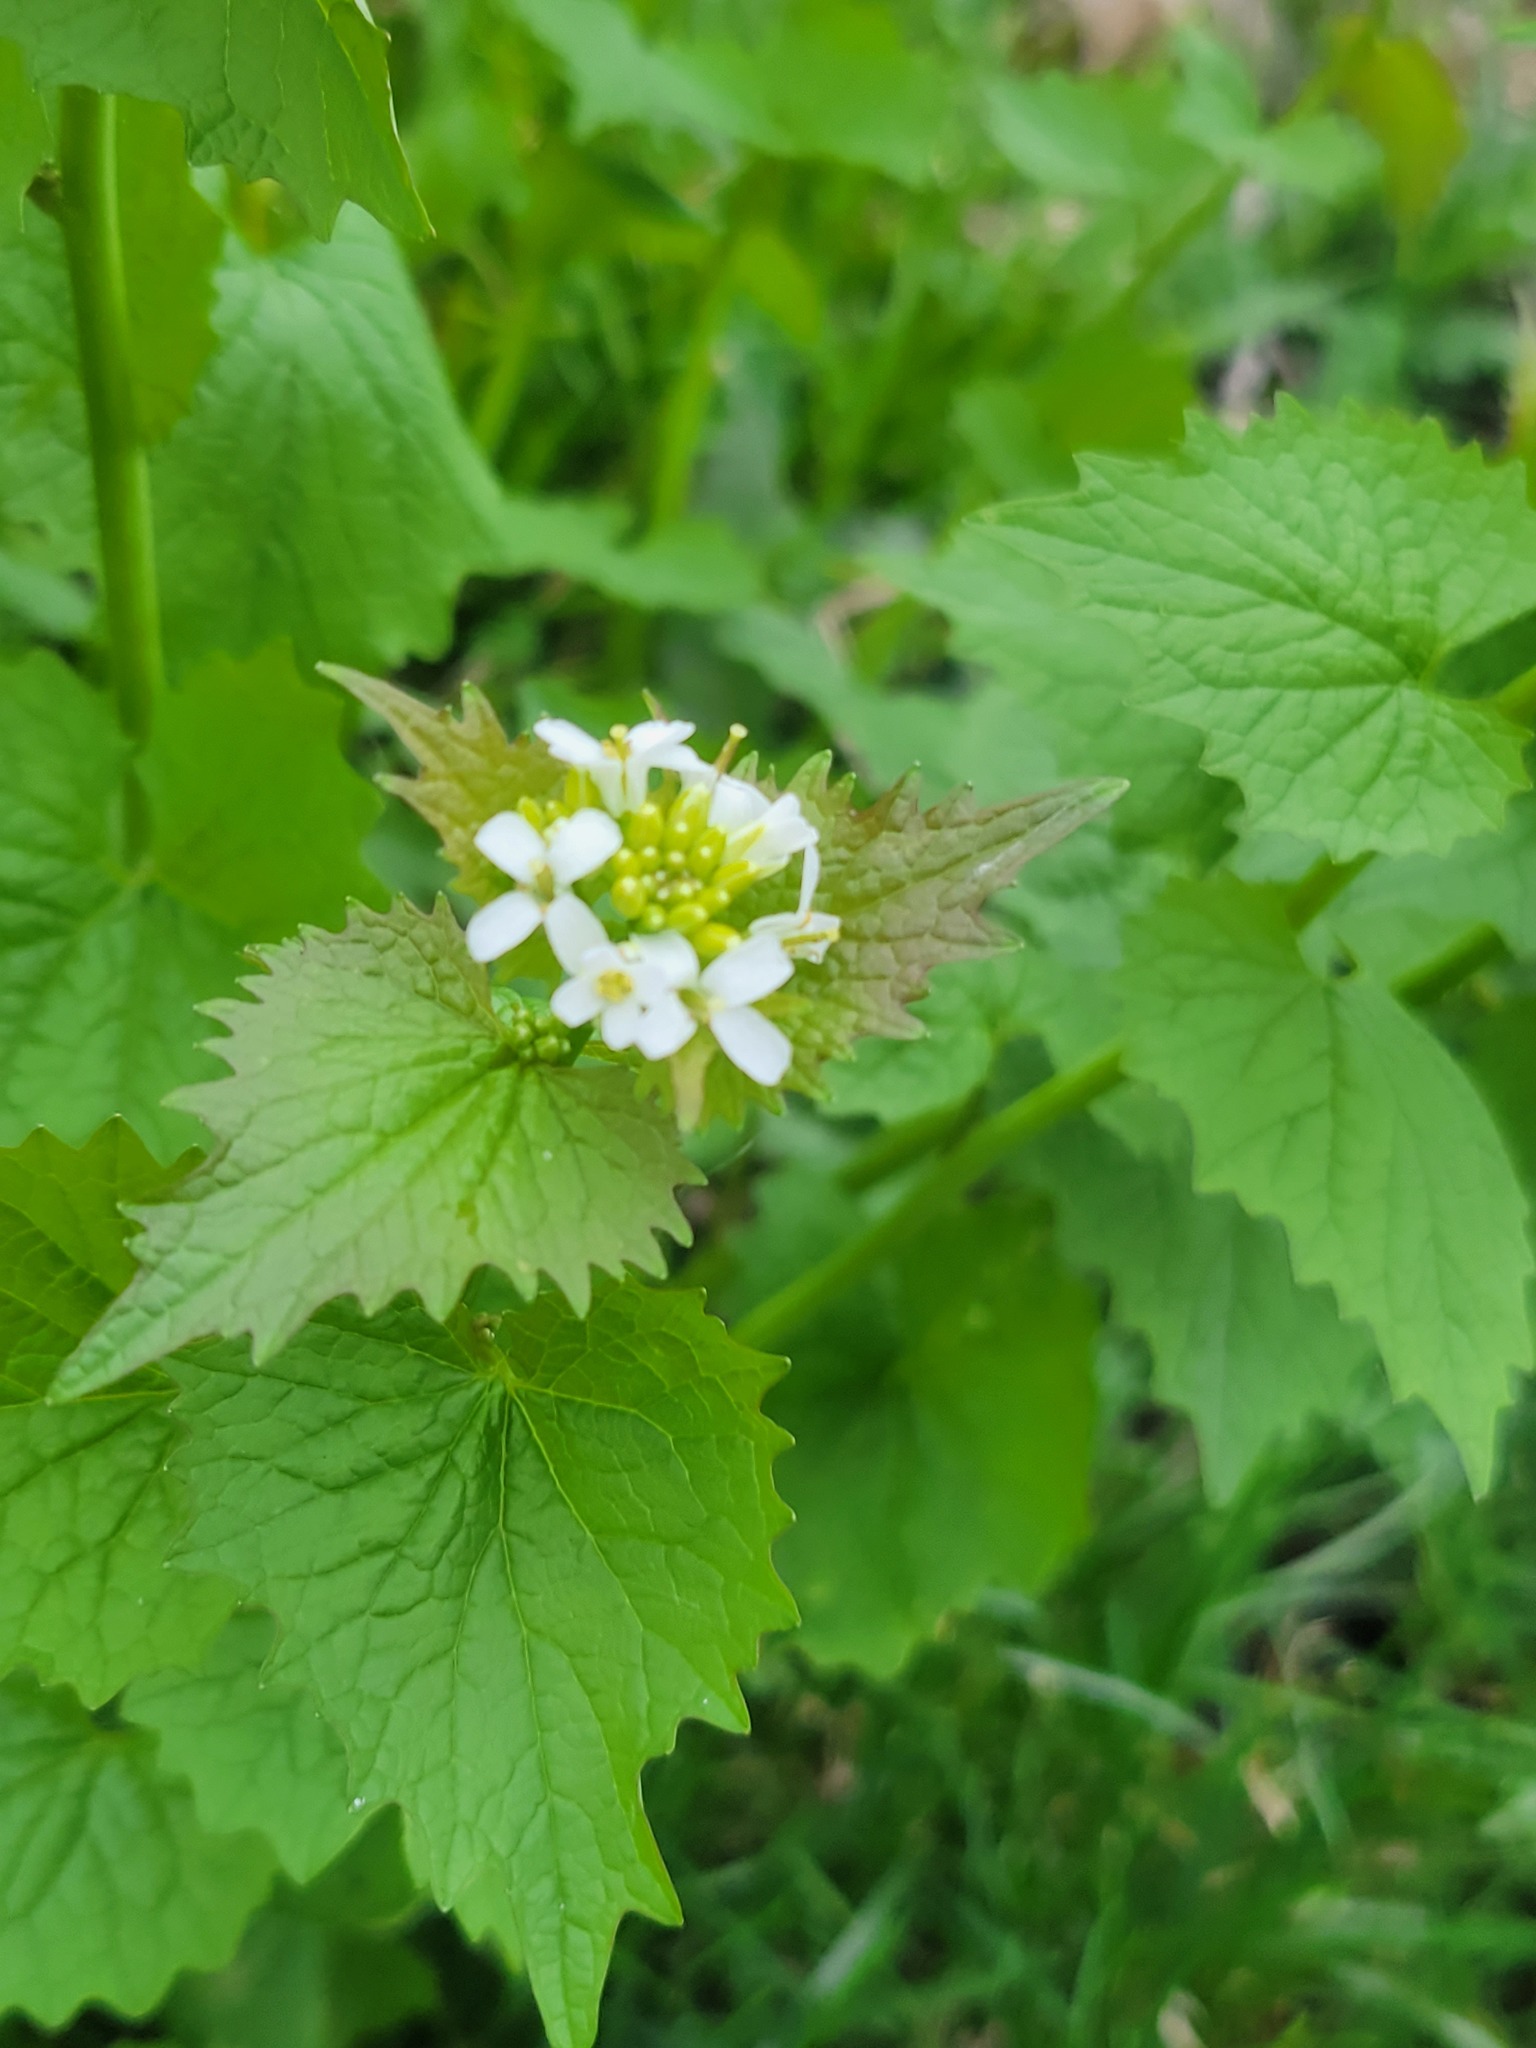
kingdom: Plantae
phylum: Tracheophyta
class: Magnoliopsida
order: Brassicales
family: Brassicaceae
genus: Alliaria
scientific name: Alliaria petiolata
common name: Garlic mustard
